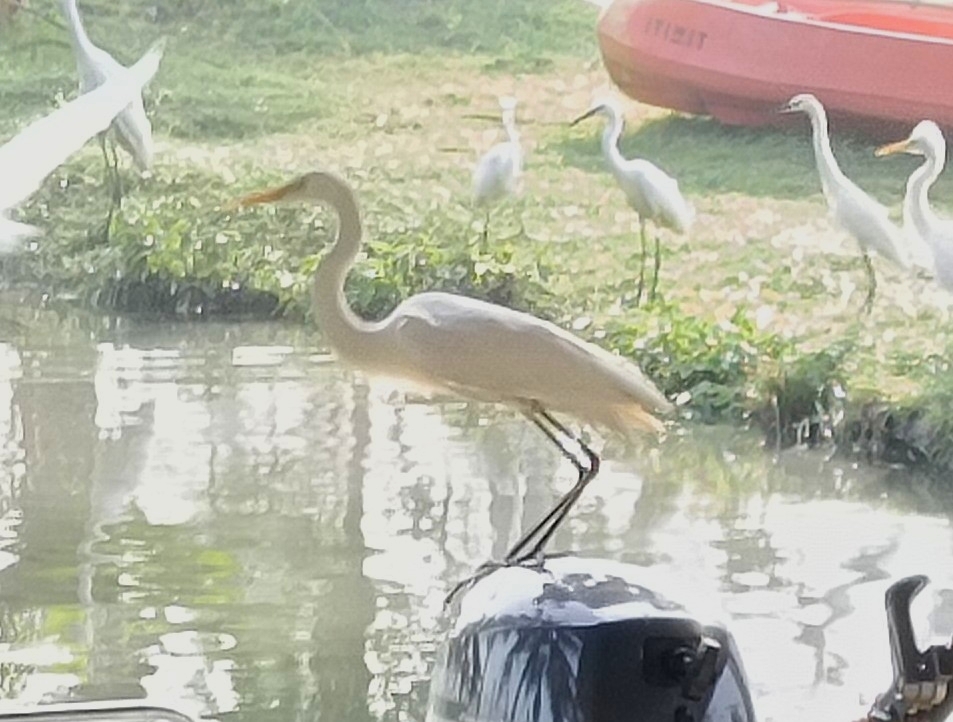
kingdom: Animalia
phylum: Chordata
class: Aves
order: Pelecaniformes
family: Ardeidae
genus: Ardea
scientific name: Ardea alba
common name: Great egret
